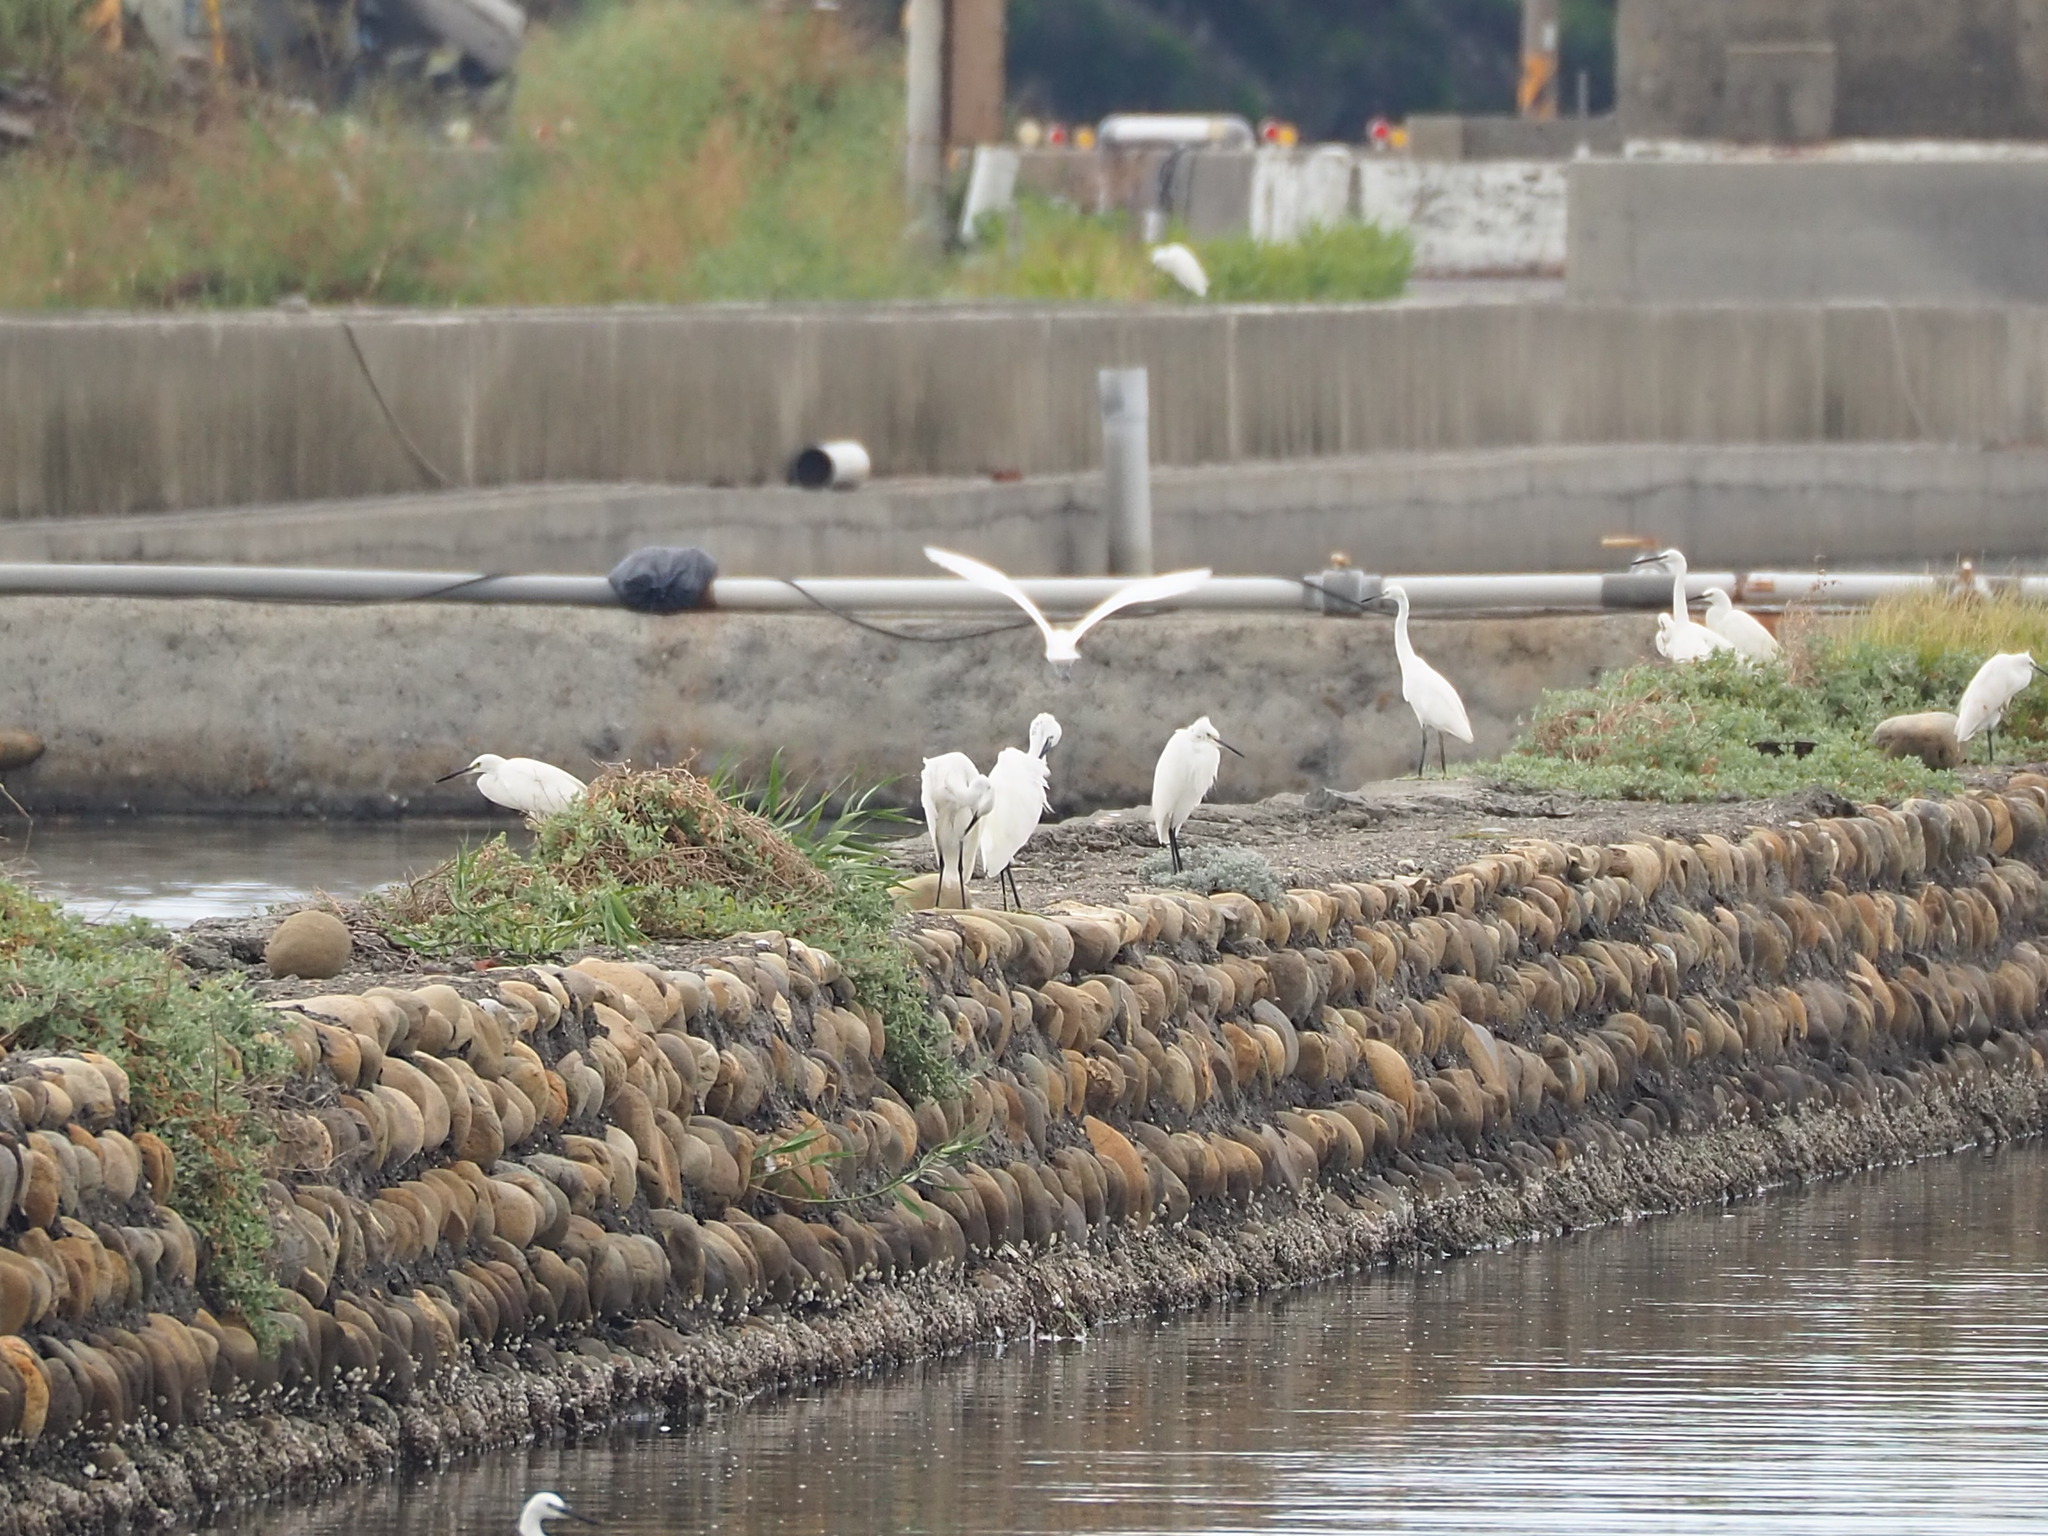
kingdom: Animalia
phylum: Chordata
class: Aves
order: Pelecaniformes
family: Ardeidae
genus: Egretta
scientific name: Egretta garzetta
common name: Little egret
